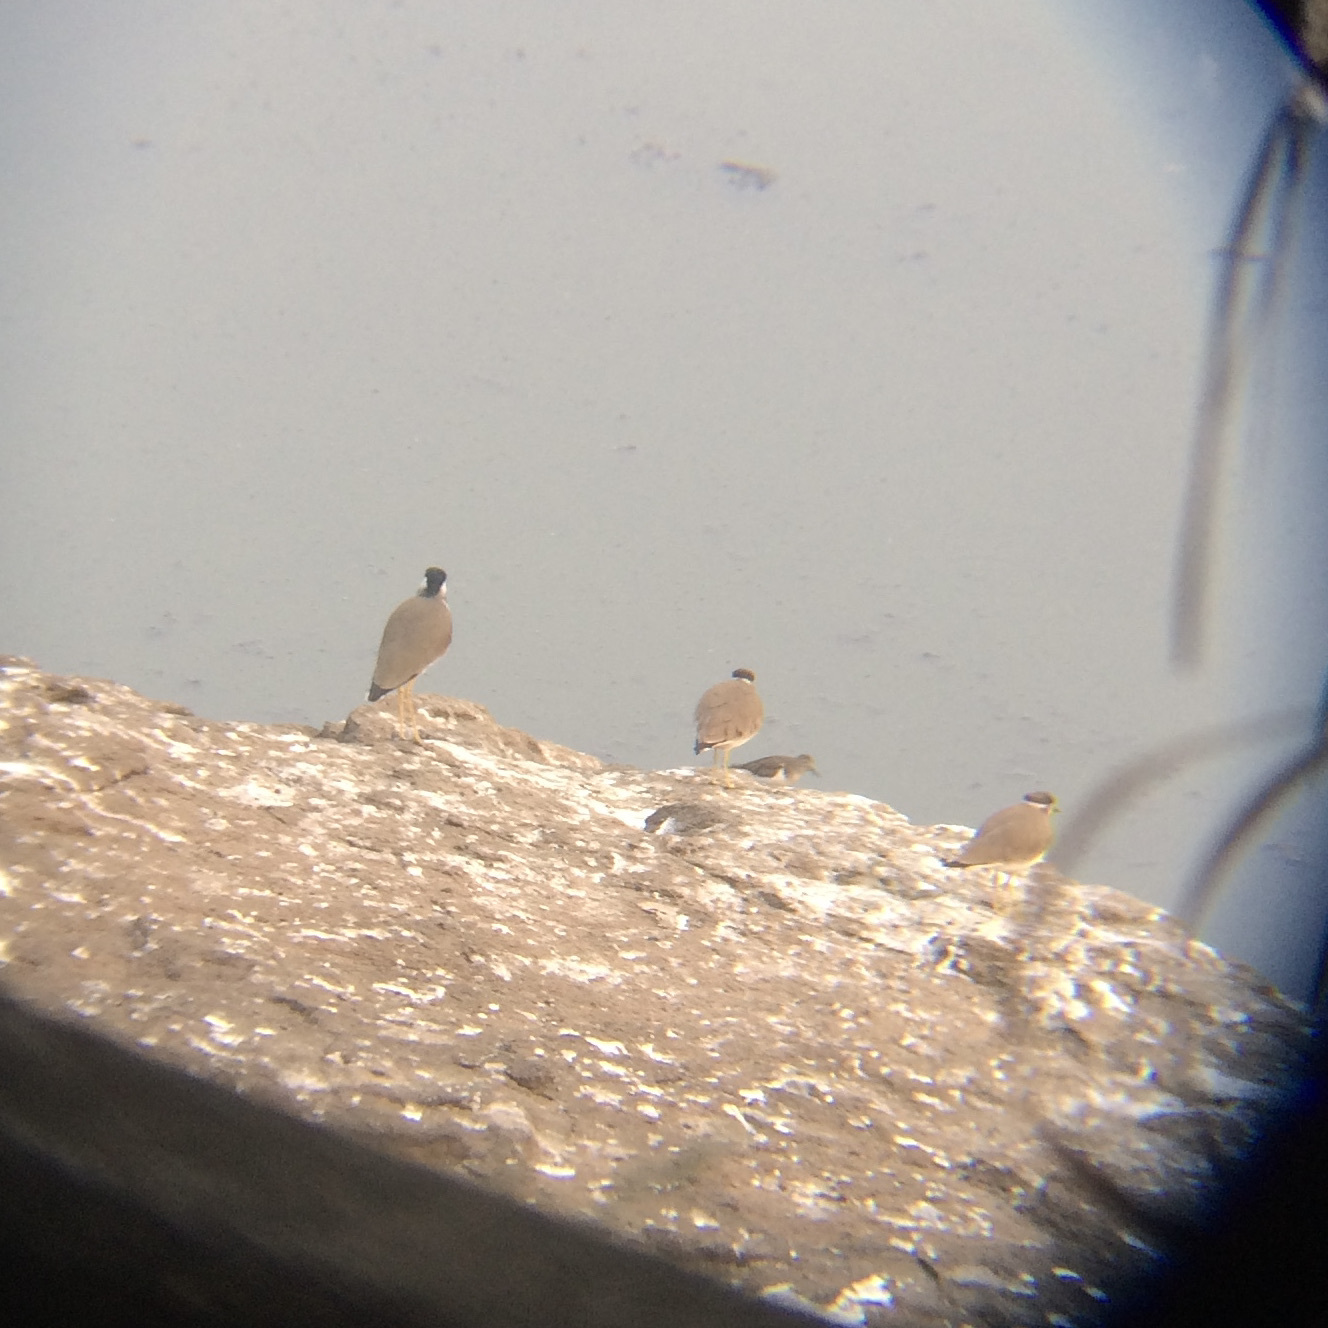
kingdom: Animalia
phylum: Chordata
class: Aves
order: Charadriiformes
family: Charadriidae
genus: Vanellus
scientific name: Vanellus malabaricus
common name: Yellow-wattled lapwing
